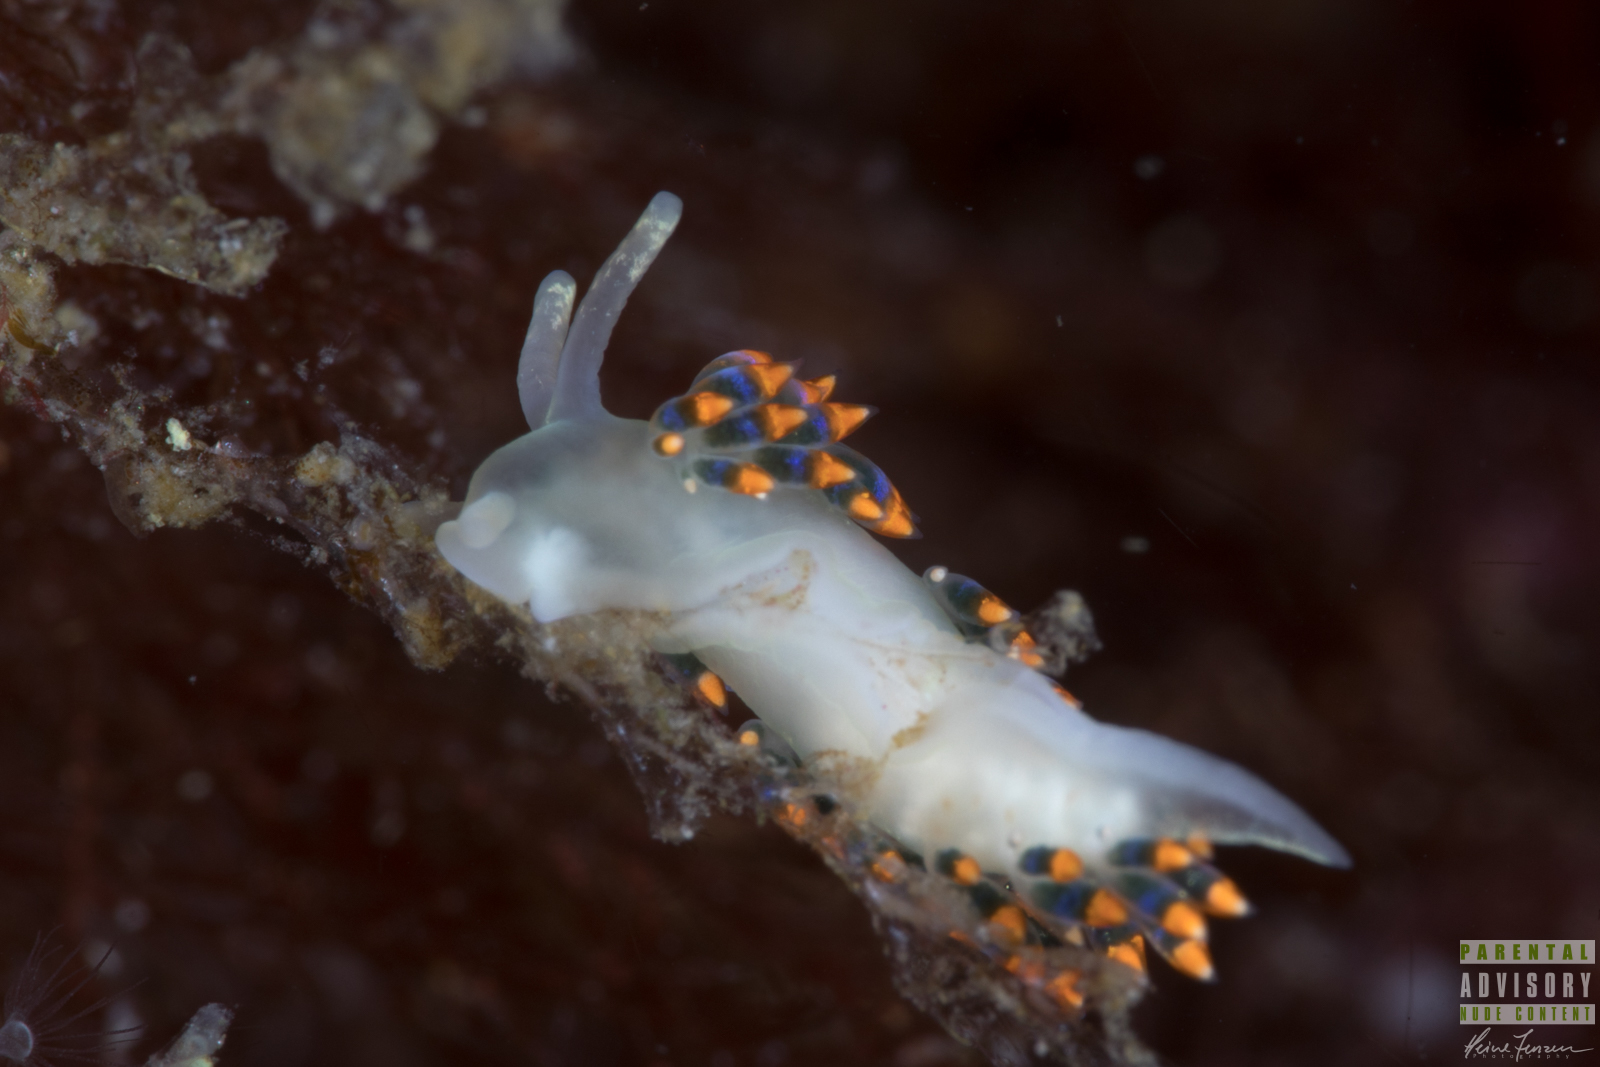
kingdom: Animalia
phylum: Mollusca
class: Gastropoda
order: Nudibranchia
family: Trinchesiidae
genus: Trinchesia
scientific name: Trinchesia cuanensis
